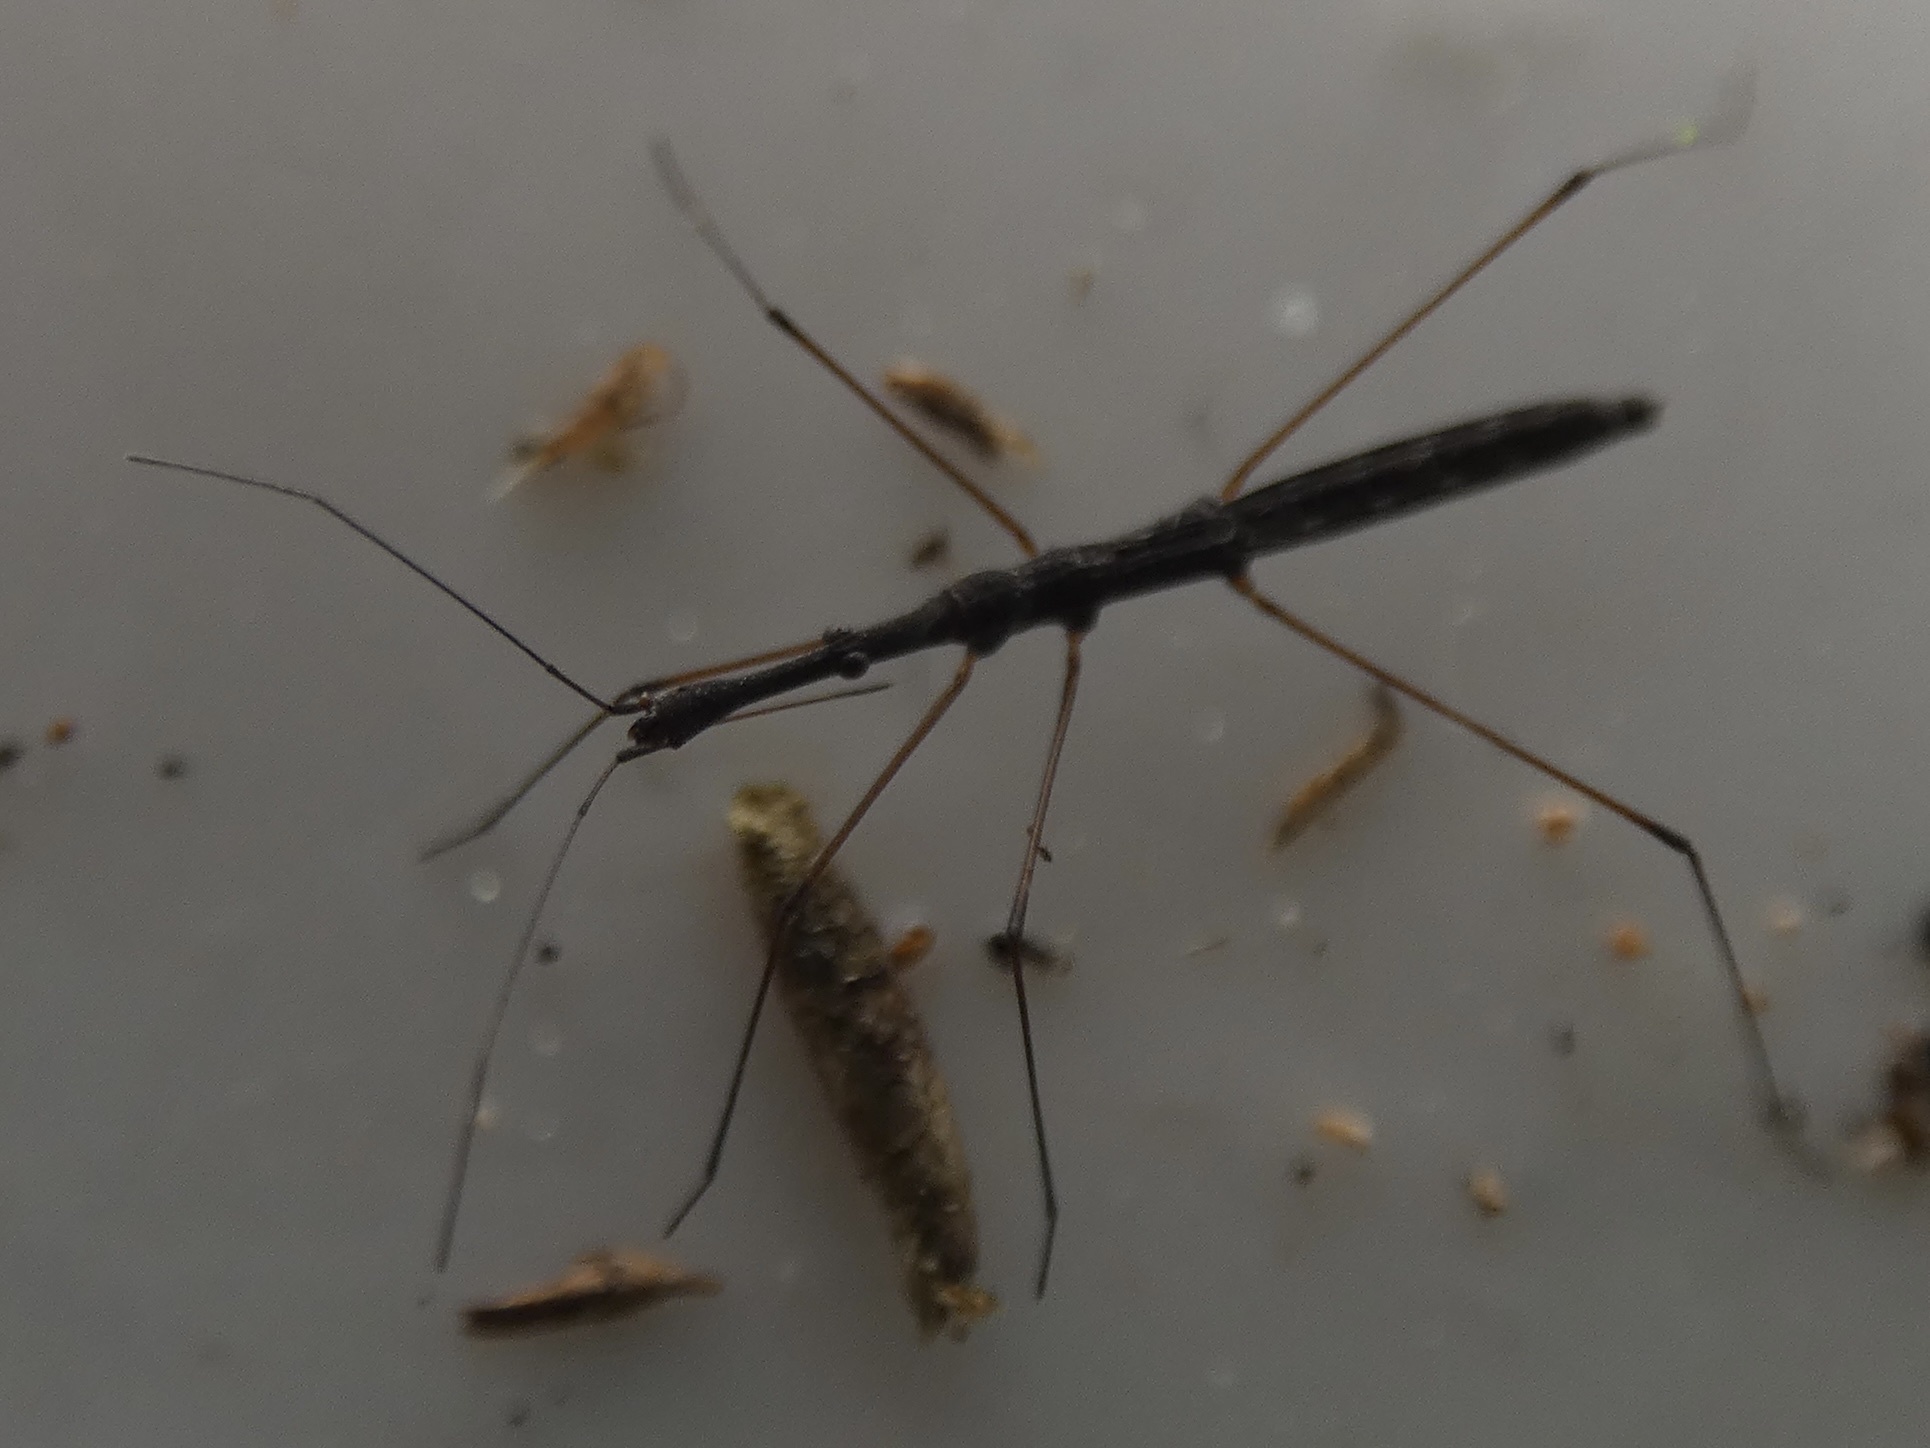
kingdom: Animalia
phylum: Arthropoda
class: Insecta
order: Hemiptera
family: Hydrometridae
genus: Hydrometra
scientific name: Hydrometra stagnorum
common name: Water measurer
